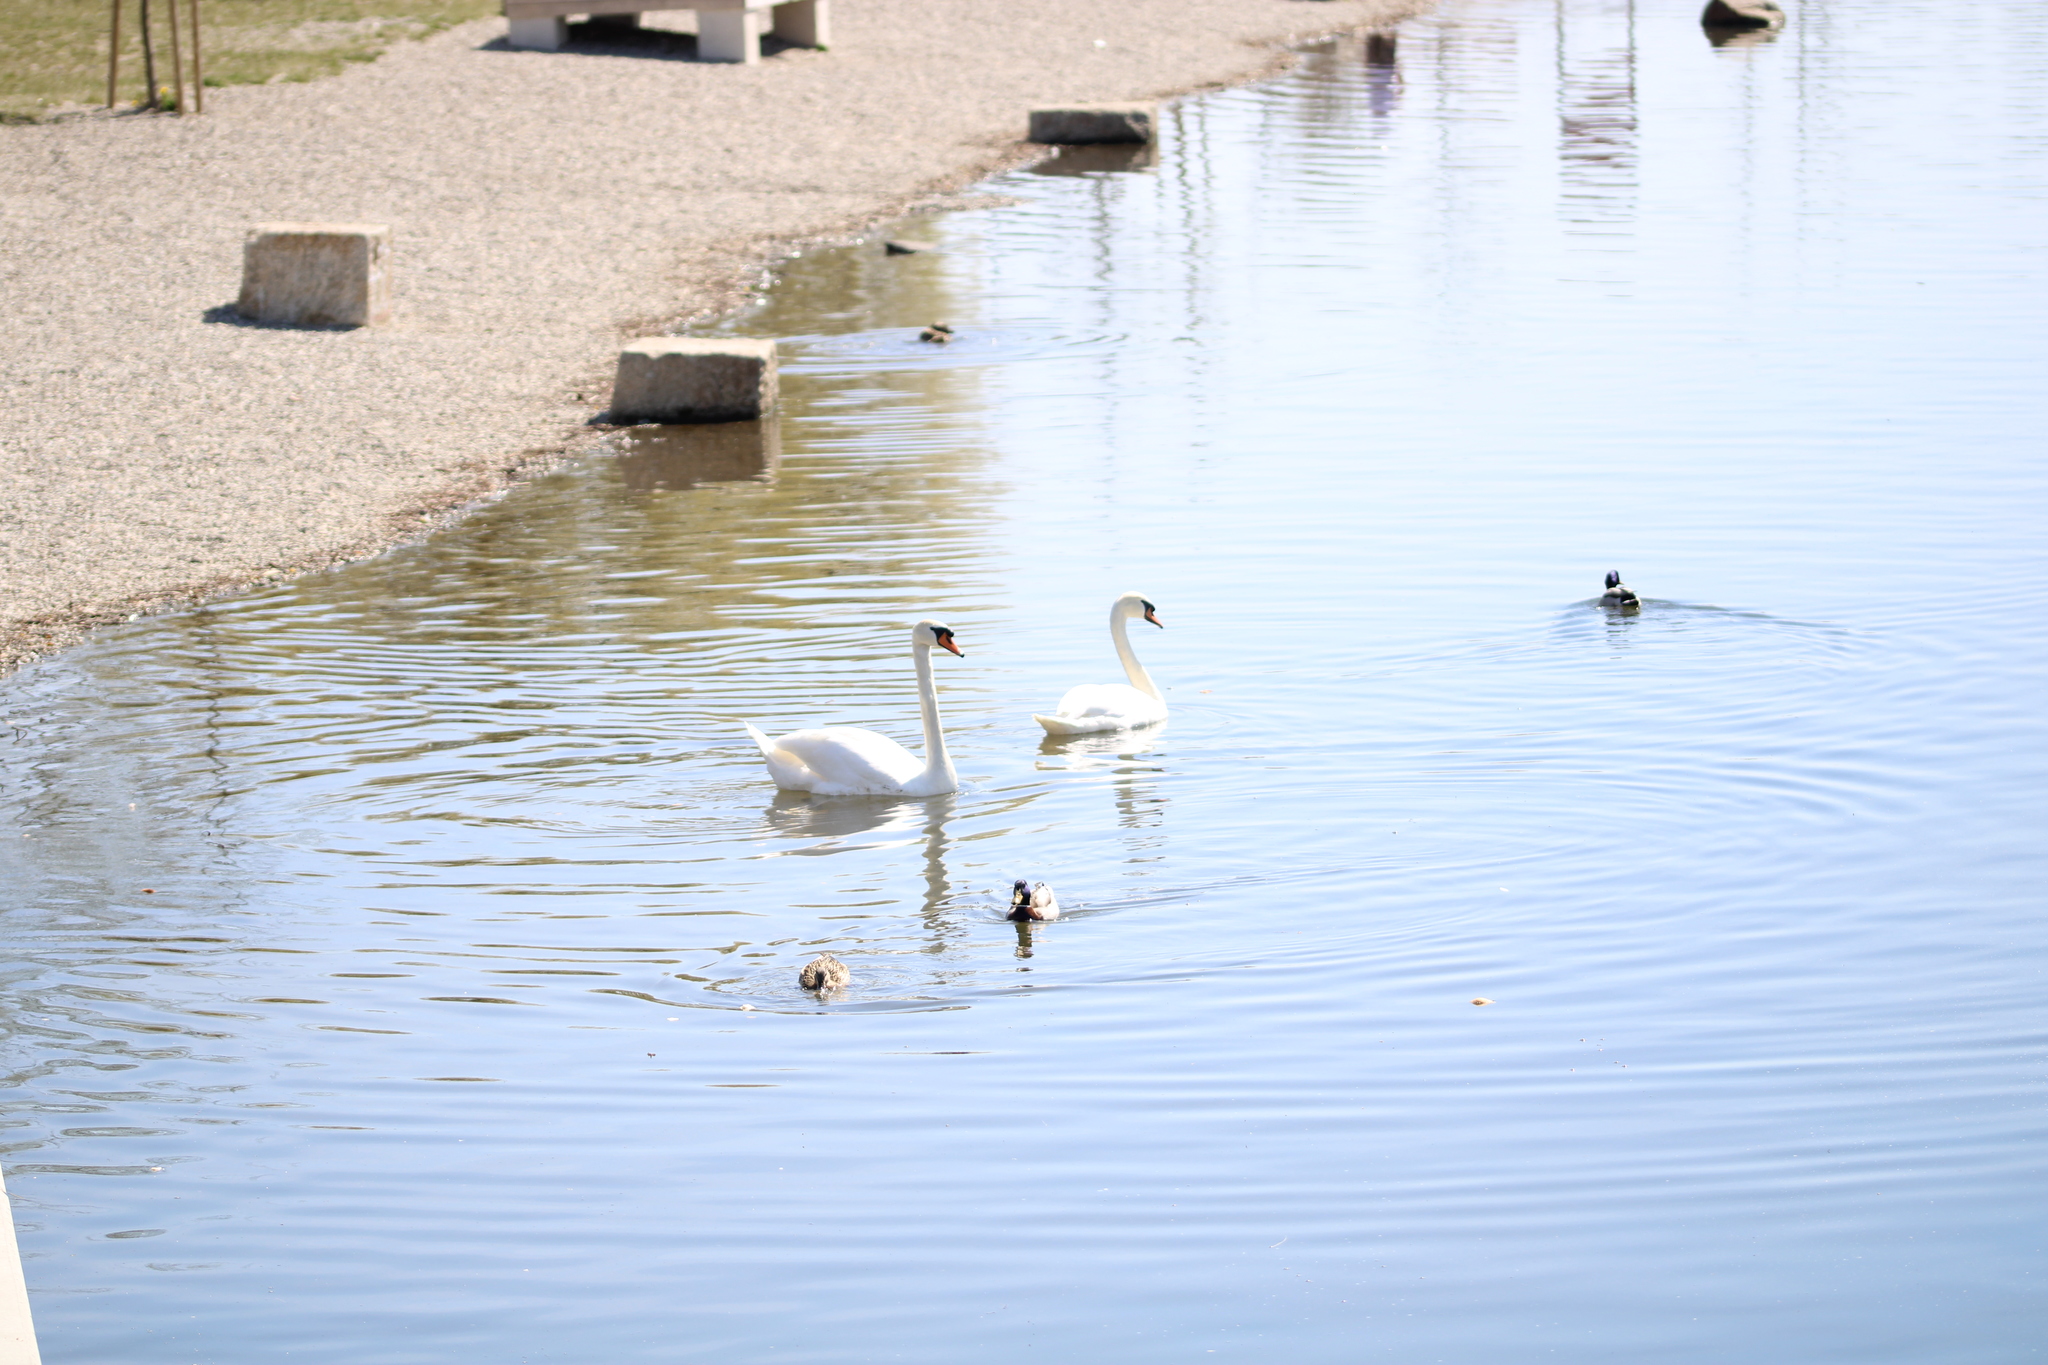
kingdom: Animalia
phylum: Chordata
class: Aves
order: Anseriformes
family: Anatidae
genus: Cygnus
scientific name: Cygnus olor
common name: Mute swan
